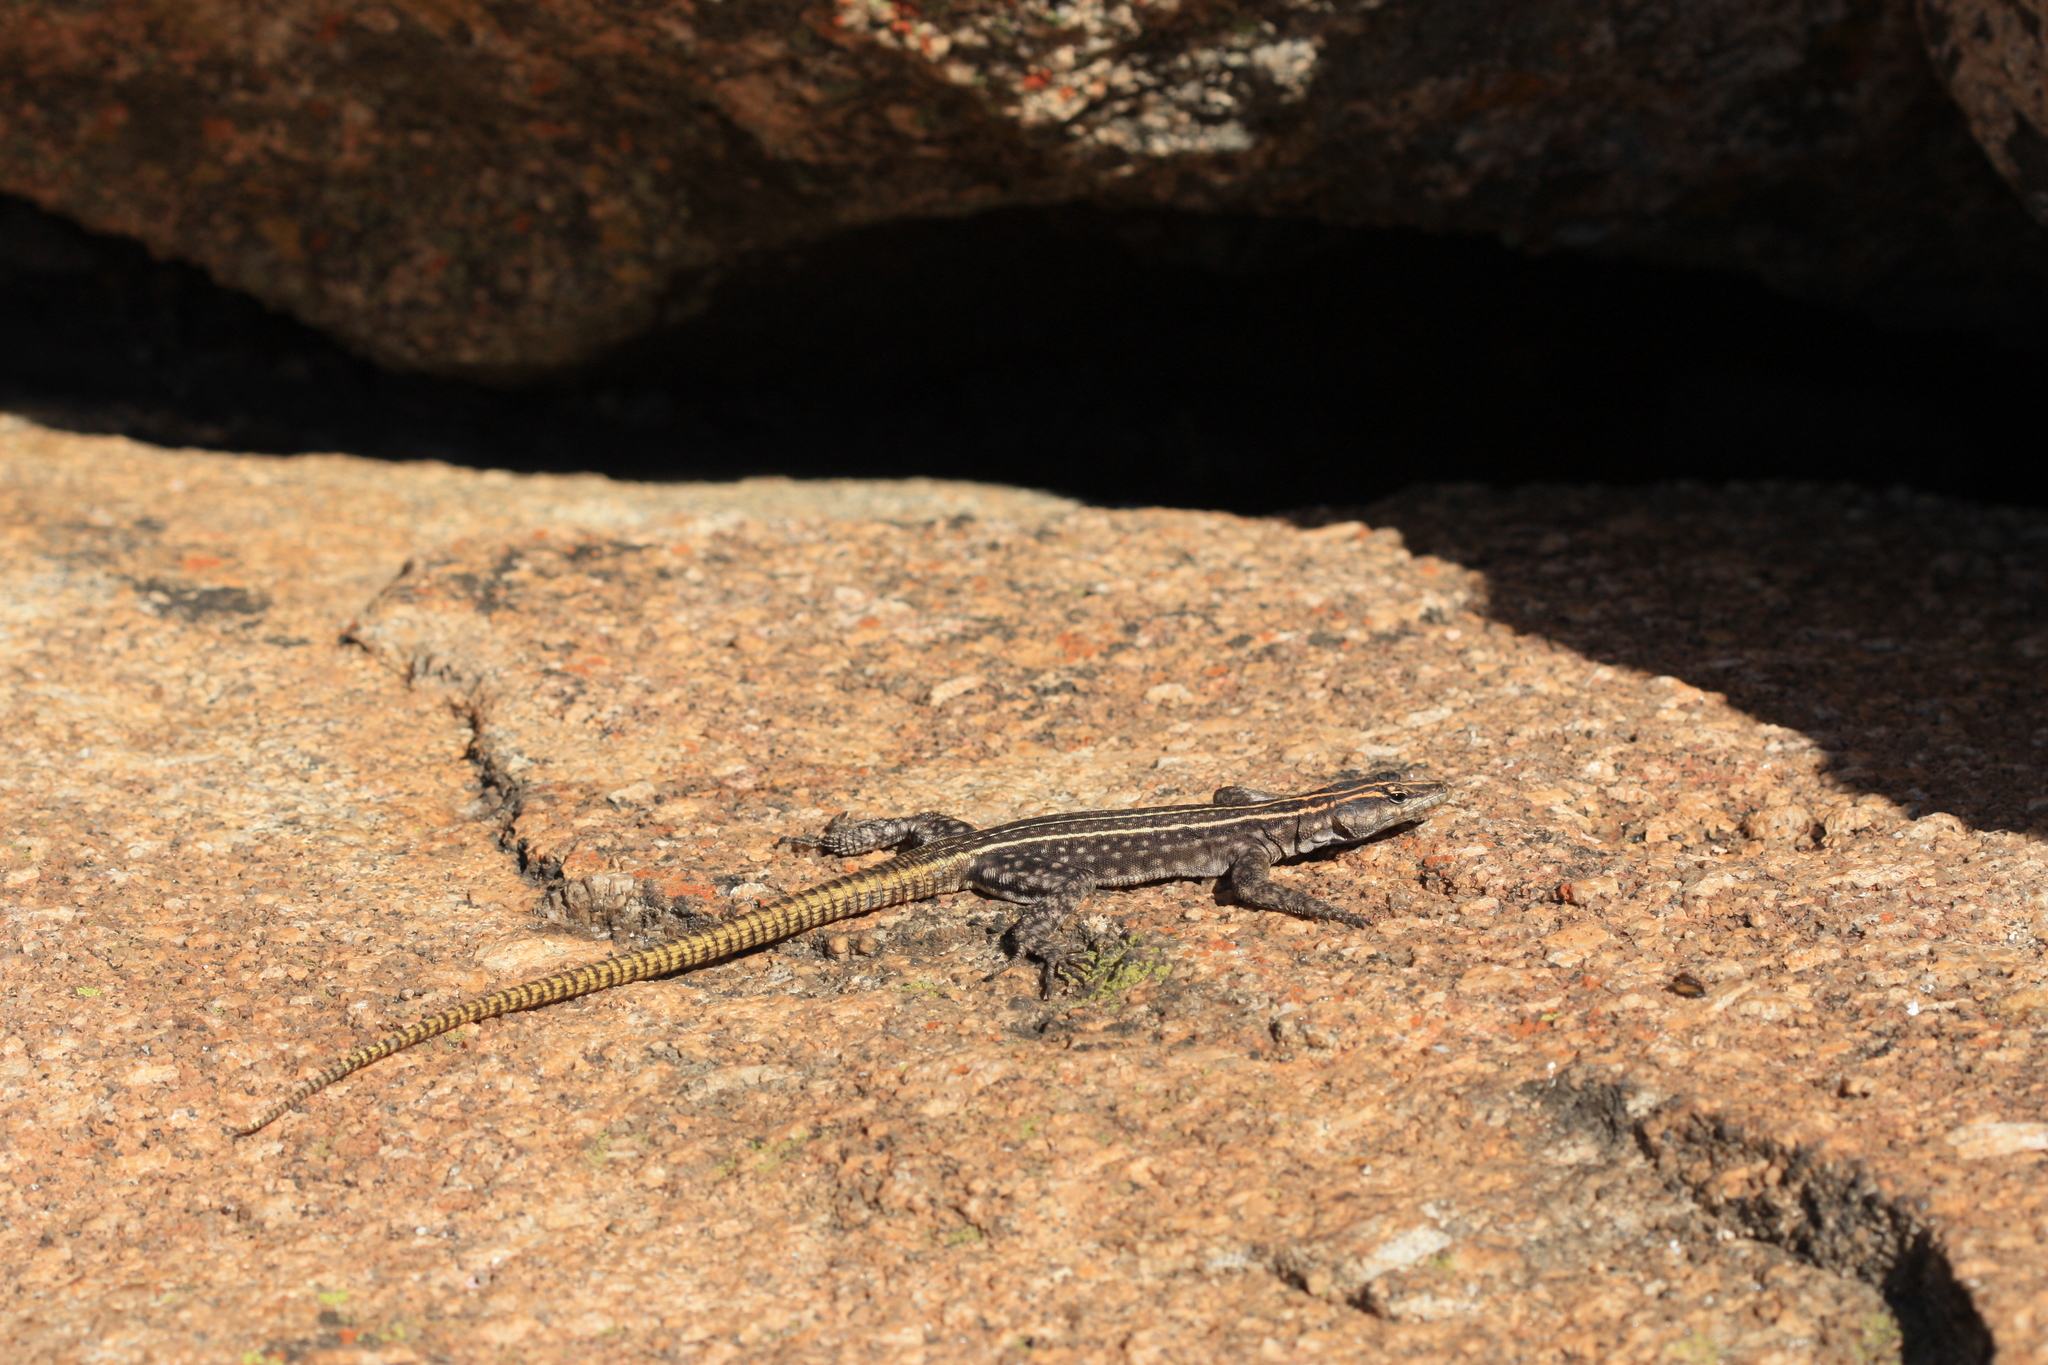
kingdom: Animalia
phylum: Chordata
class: Squamata
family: Cordylidae
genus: Platysaurus
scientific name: Platysaurus intermedius
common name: Common flat lizard
